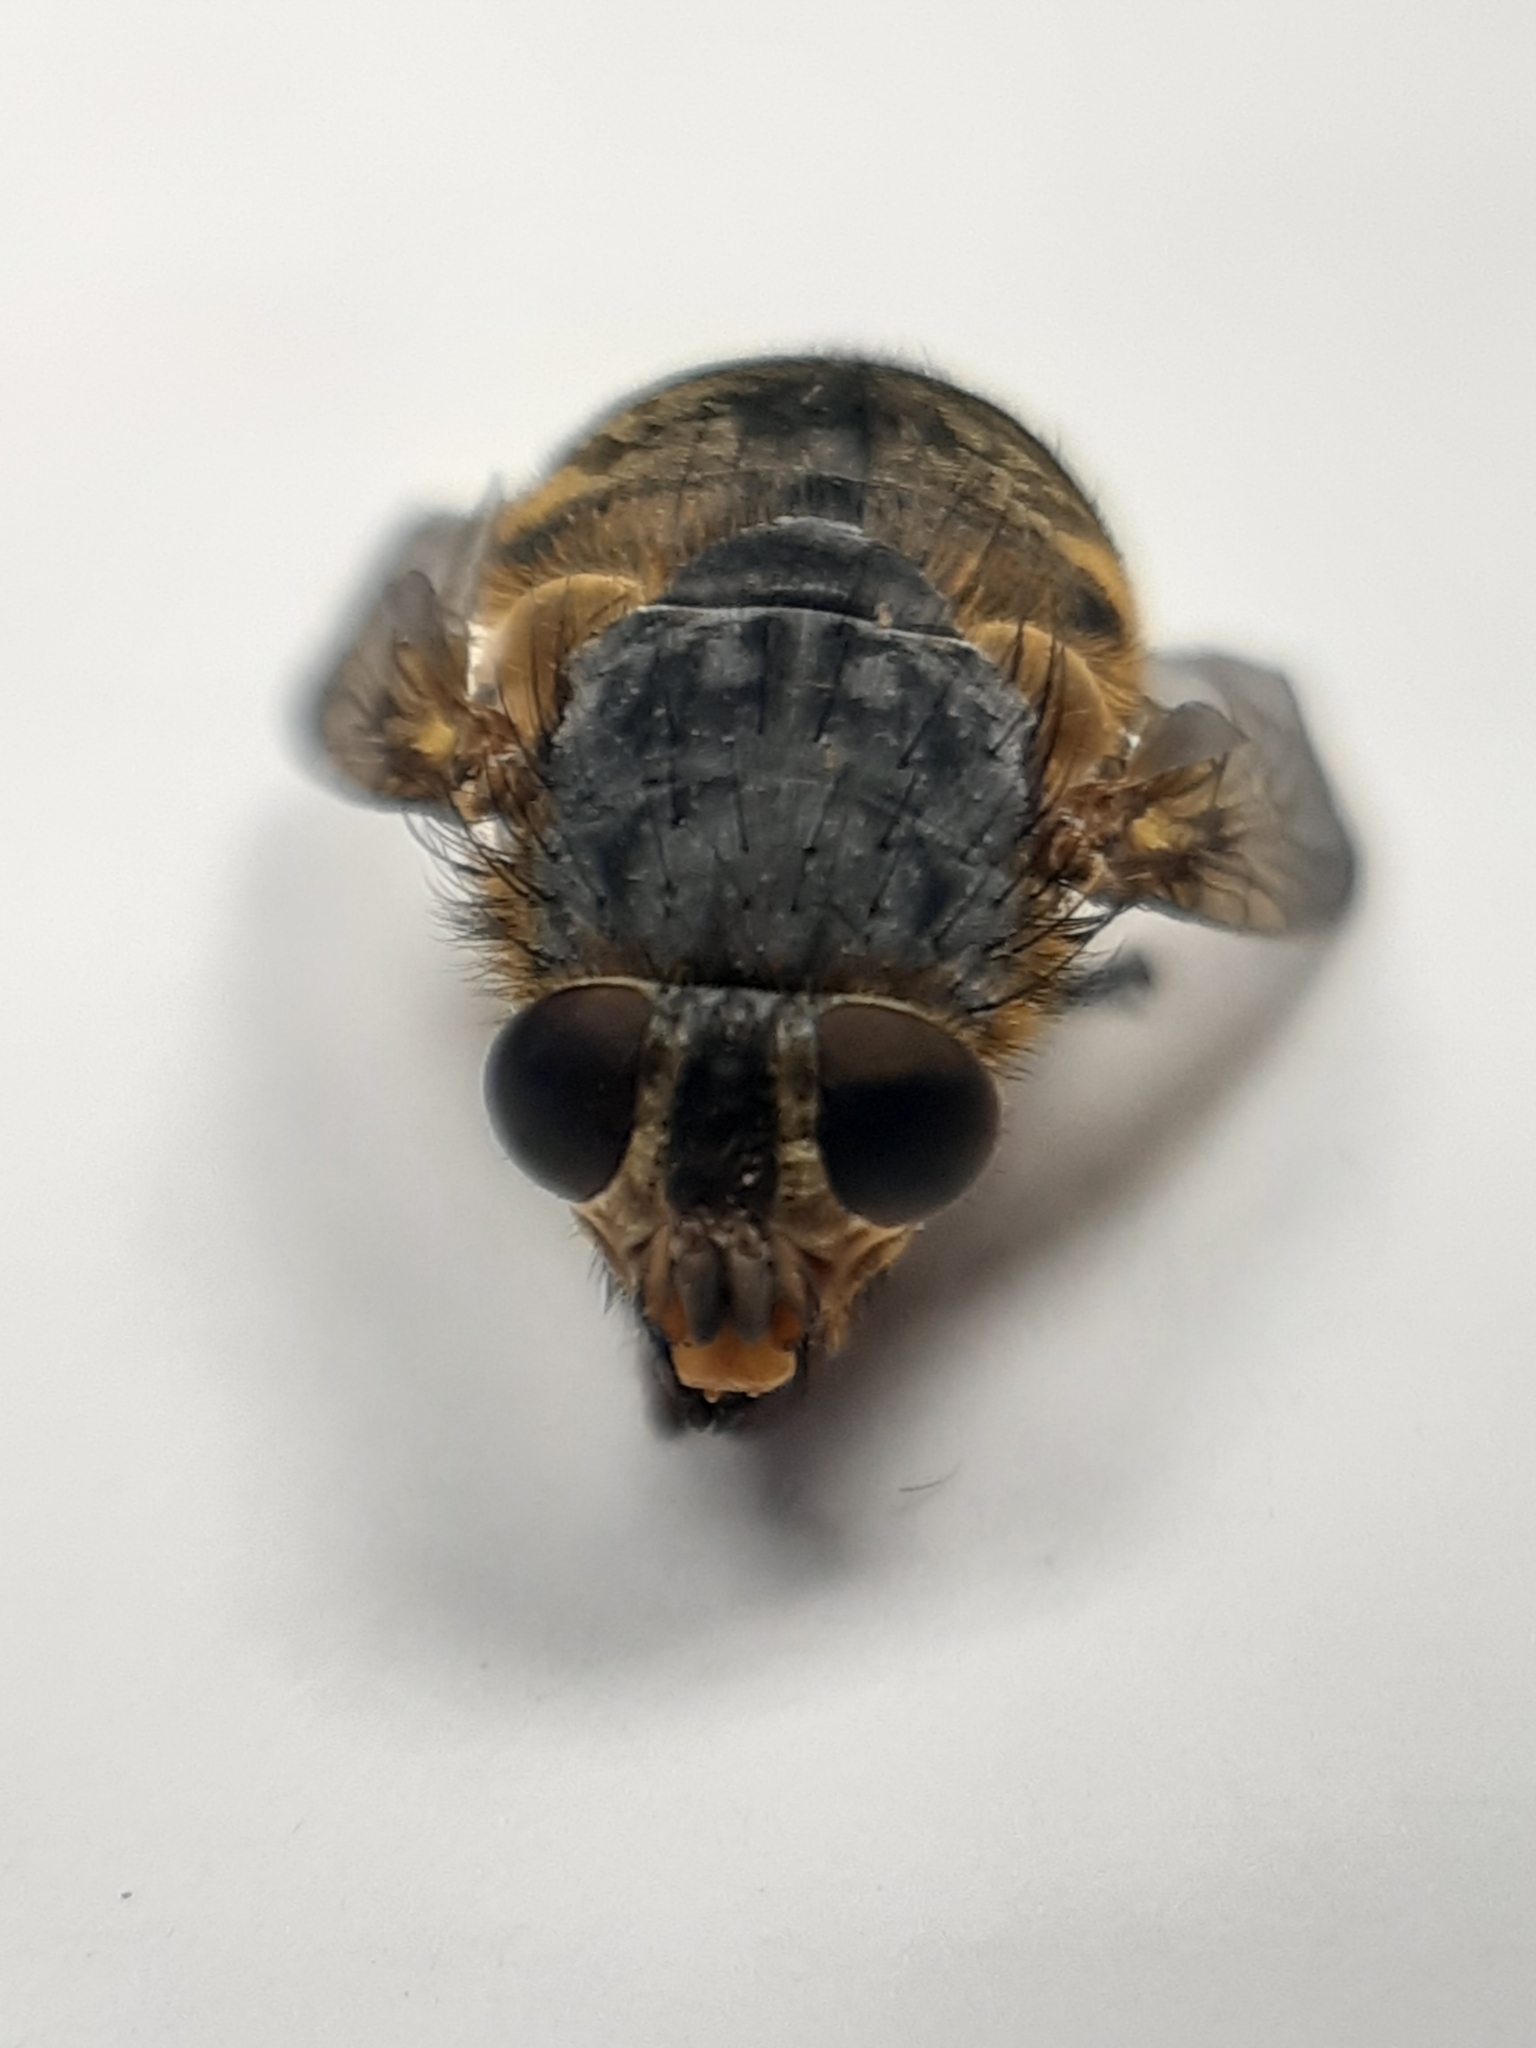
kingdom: Animalia
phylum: Arthropoda
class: Insecta
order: Diptera
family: Calliphoridae
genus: Calliphora
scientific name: Calliphora hilli
